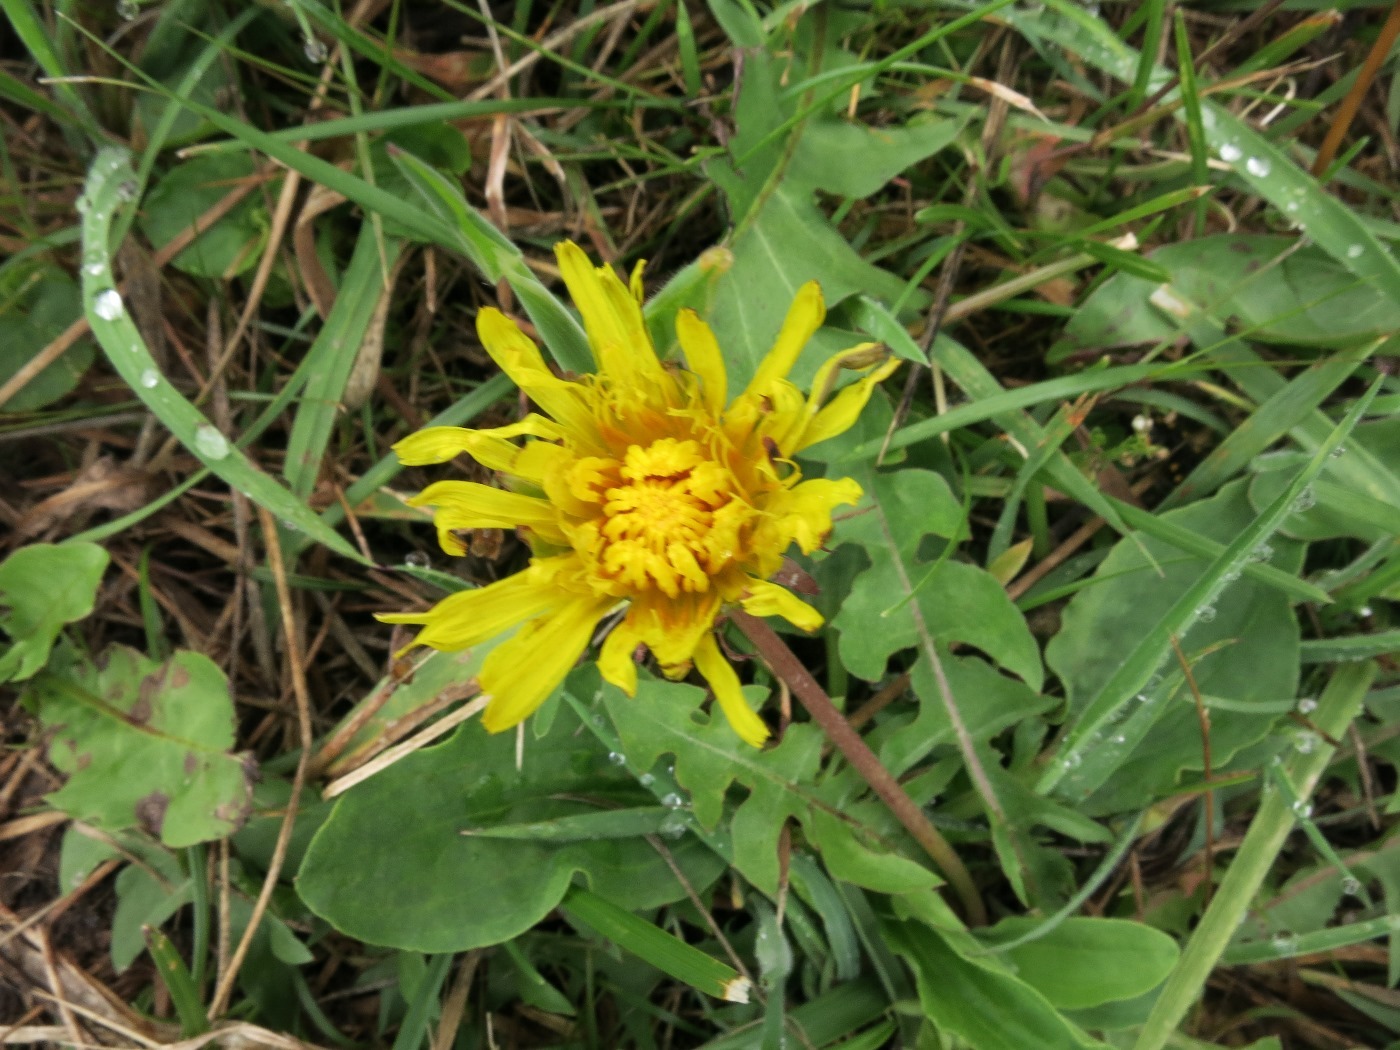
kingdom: Plantae
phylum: Tracheophyta
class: Magnoliopsida
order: Asterales
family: Asteraceae
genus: Taraxacum
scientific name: Taraxacum officinale
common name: Common dandelion
